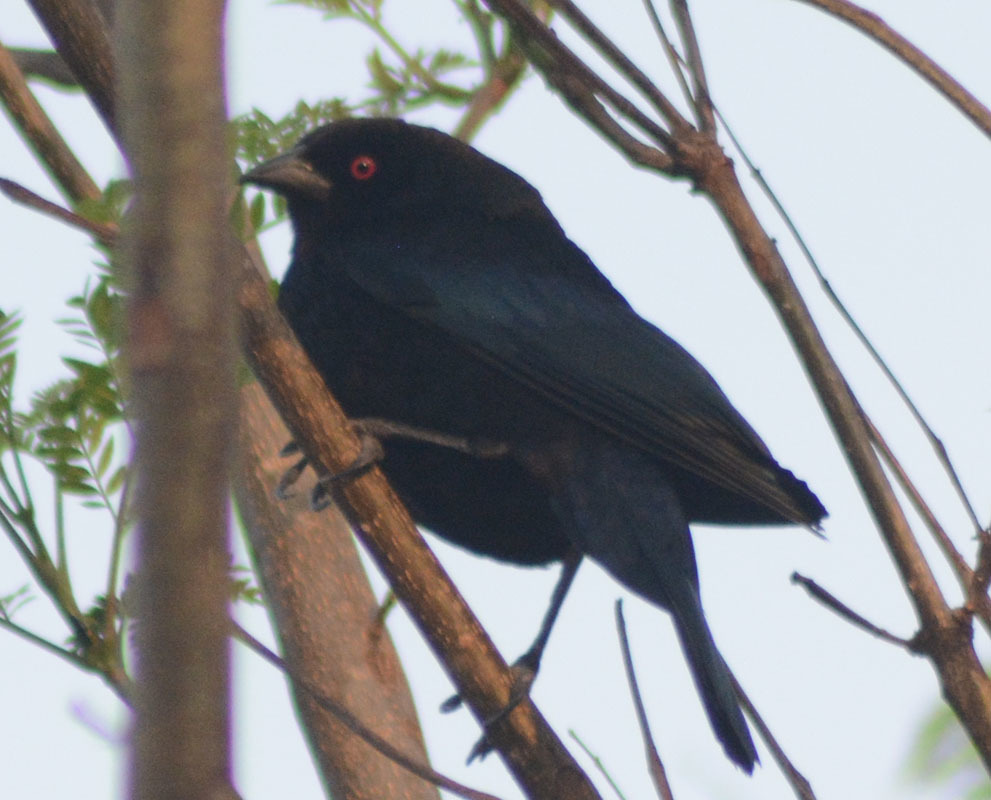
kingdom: Animalia
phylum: Chordata
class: Aves
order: Passeriformes
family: Icteridae
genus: Molothrus
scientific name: Molothrus aeneus
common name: Bronzed cowbird
